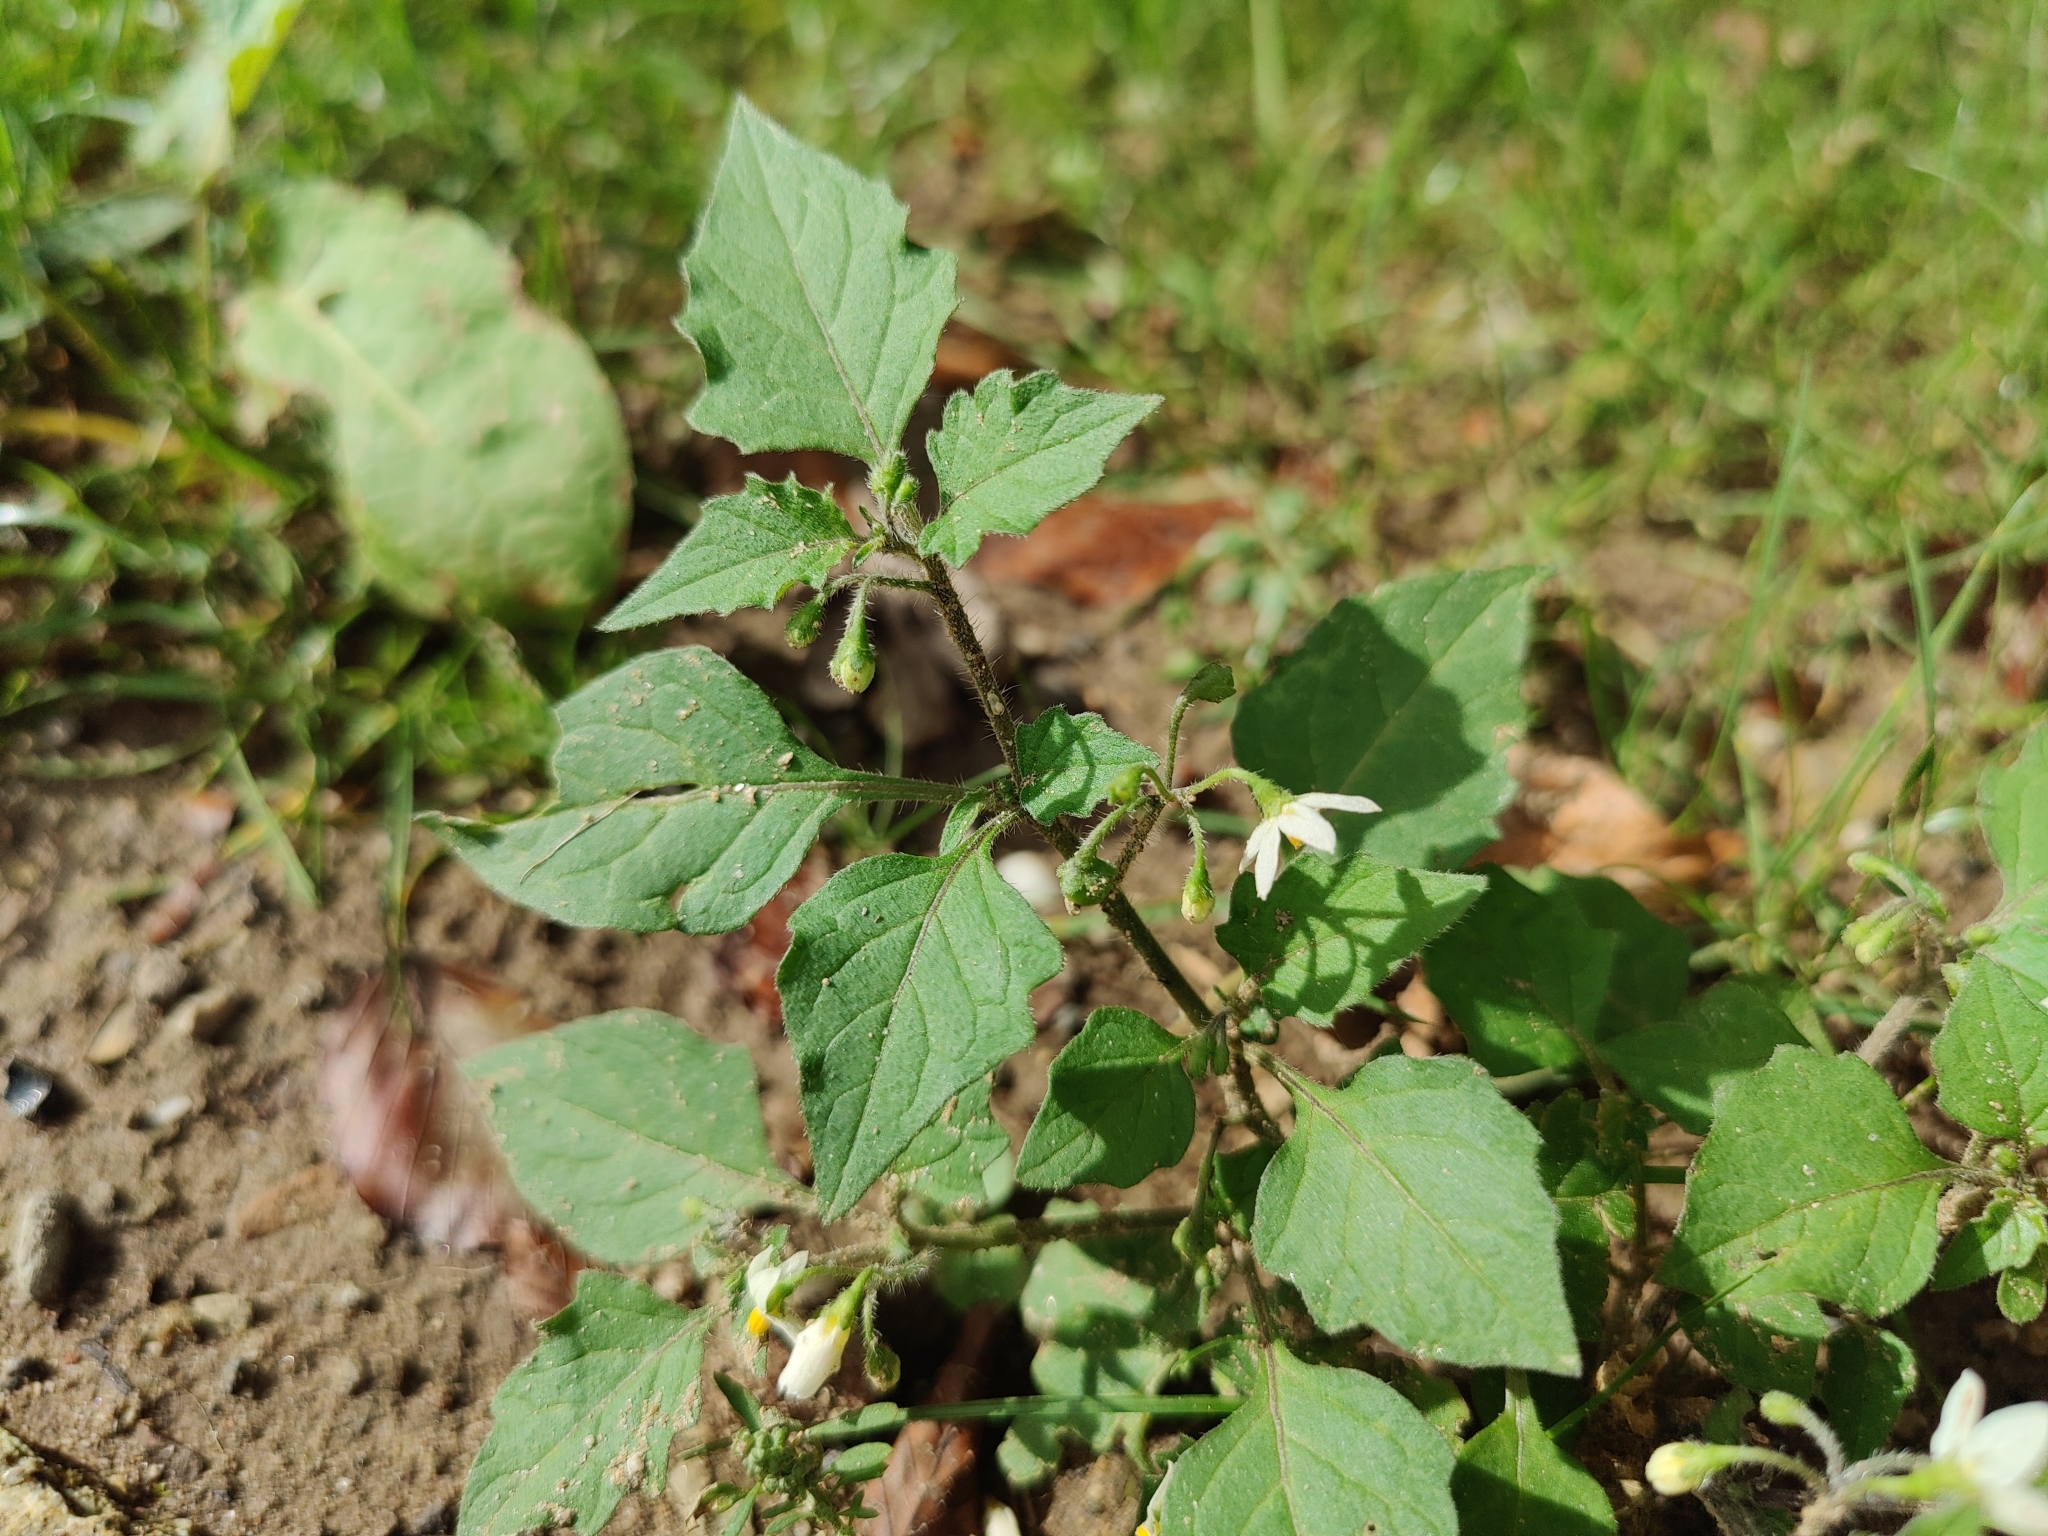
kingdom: Plantae
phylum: Tracheophyta
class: Magnoliopsida
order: Solanales
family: Solanaceae
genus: Solanum
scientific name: Solanum nigrum
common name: Black nightshade
